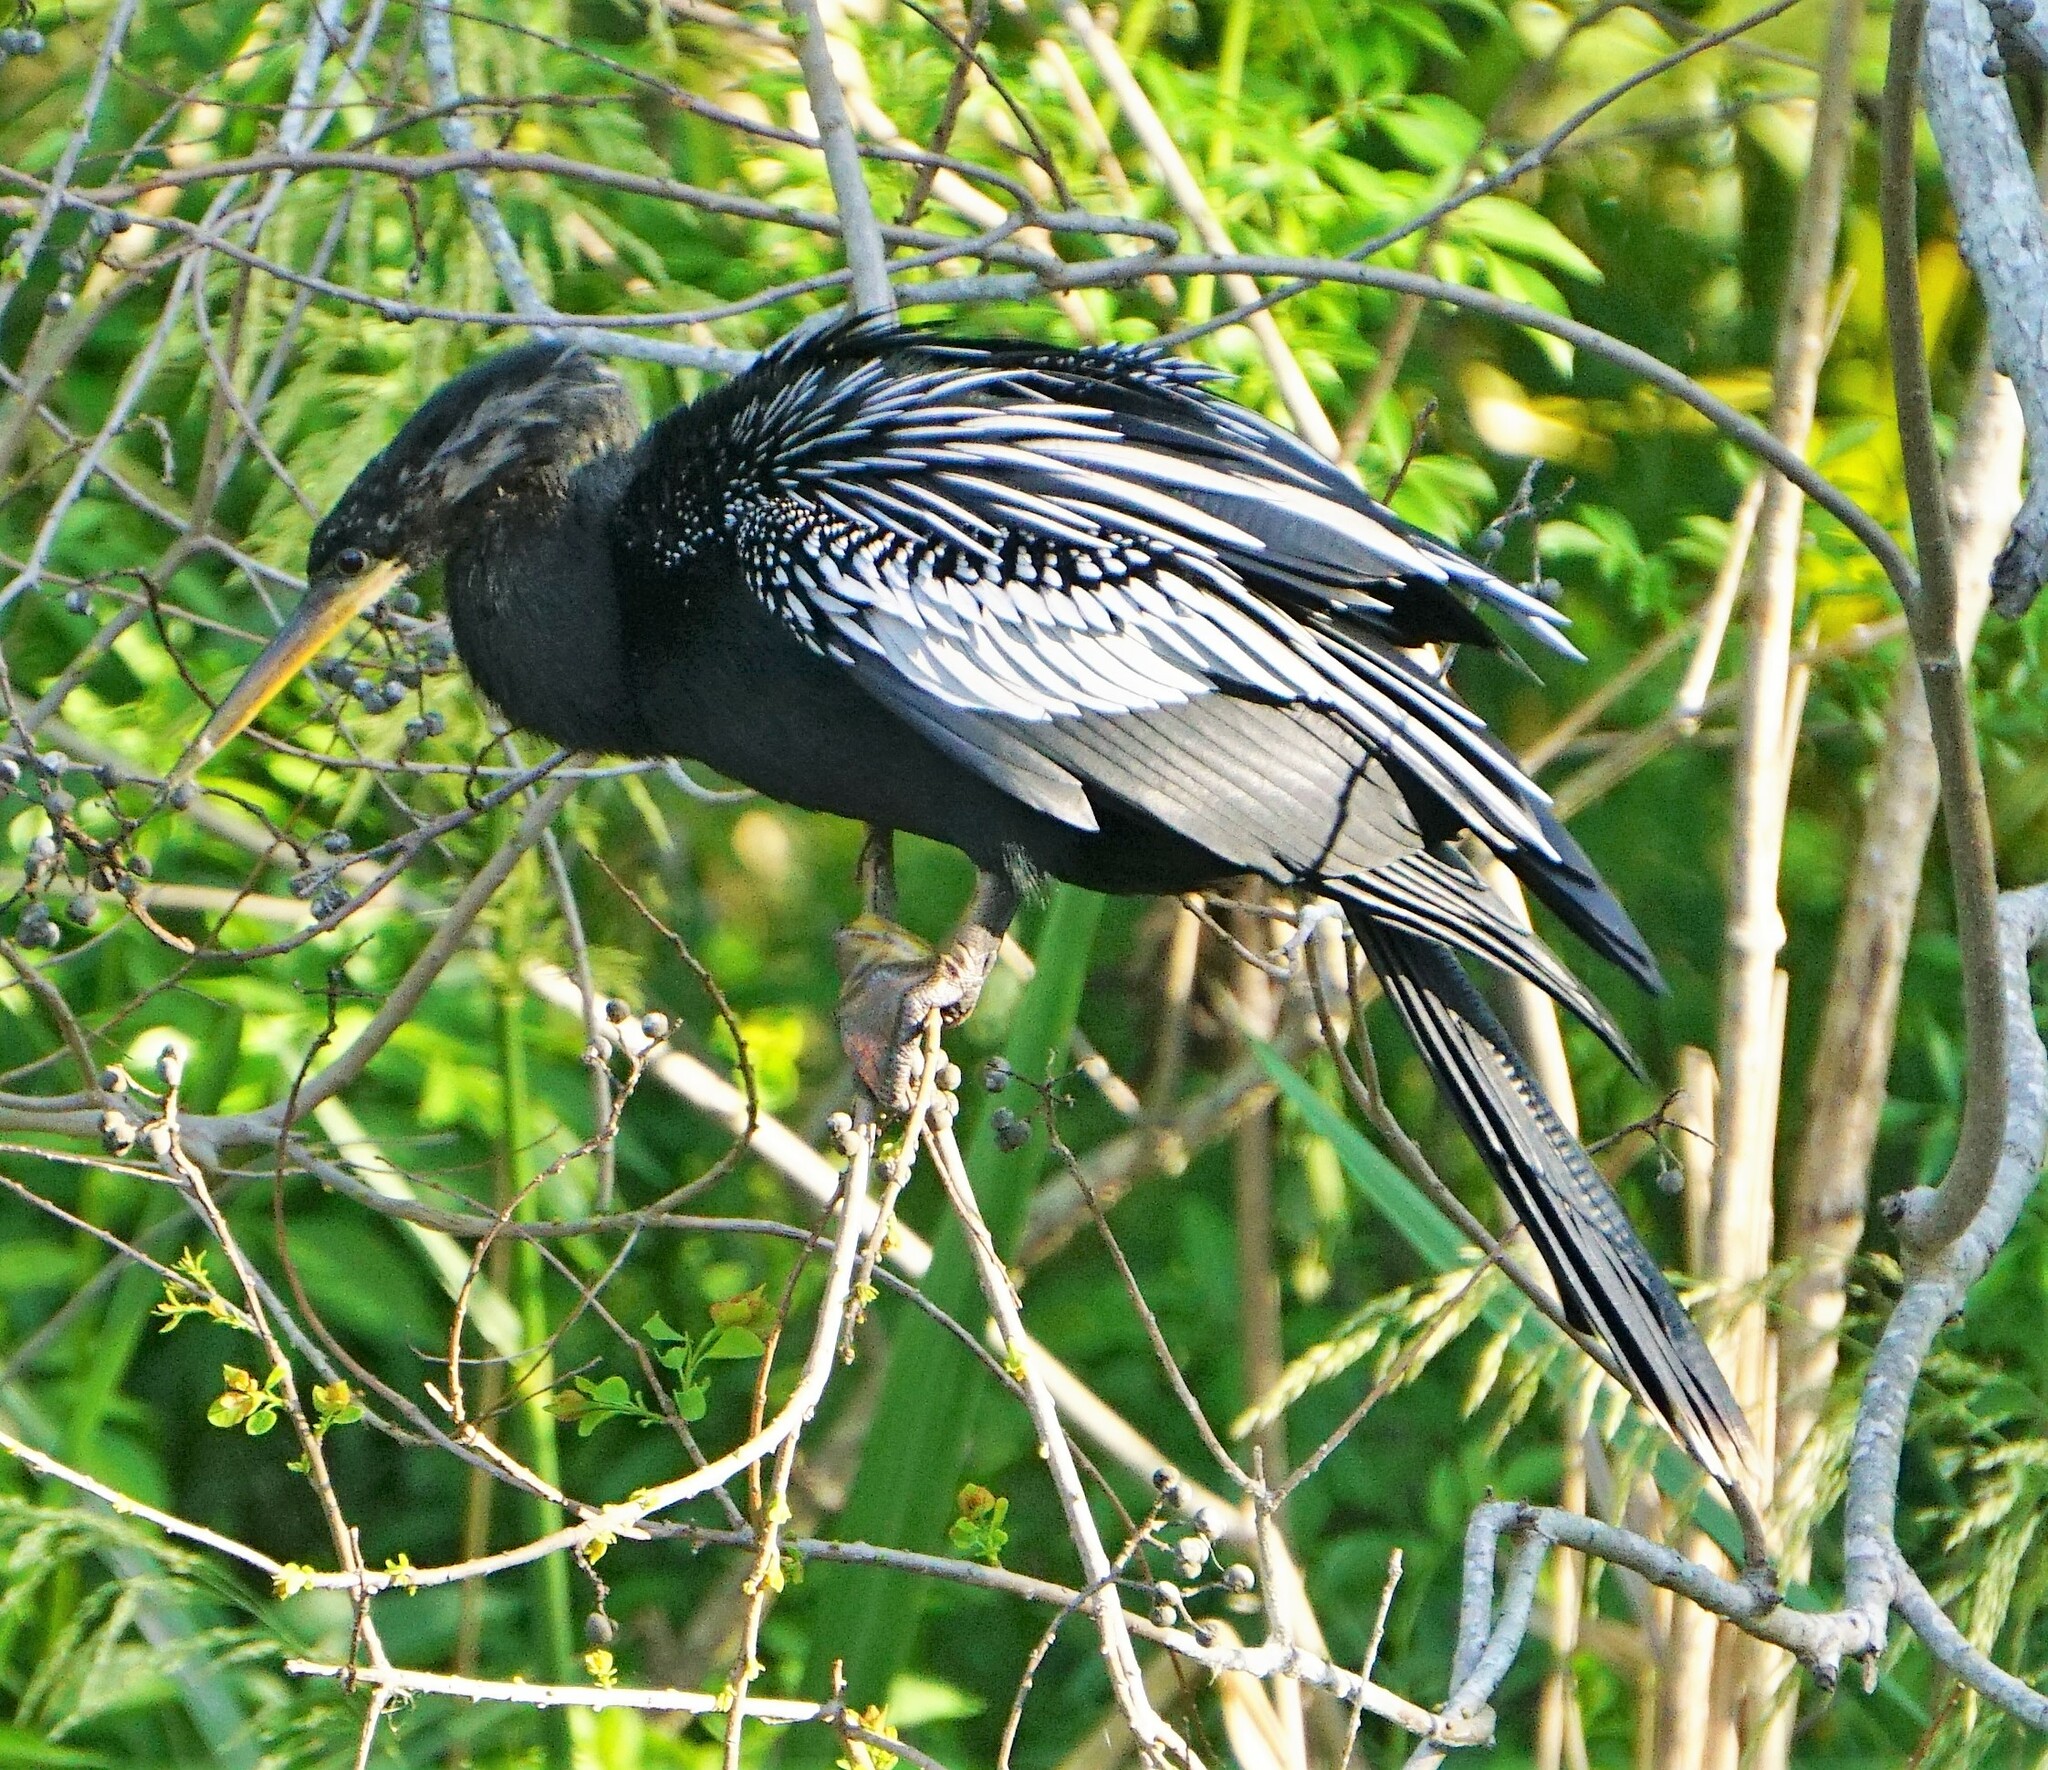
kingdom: Animalia
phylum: Chordata
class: Aves
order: Suliformes
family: Anhingidae
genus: Anhinga
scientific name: Anhinga anhinga
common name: Anhinga
